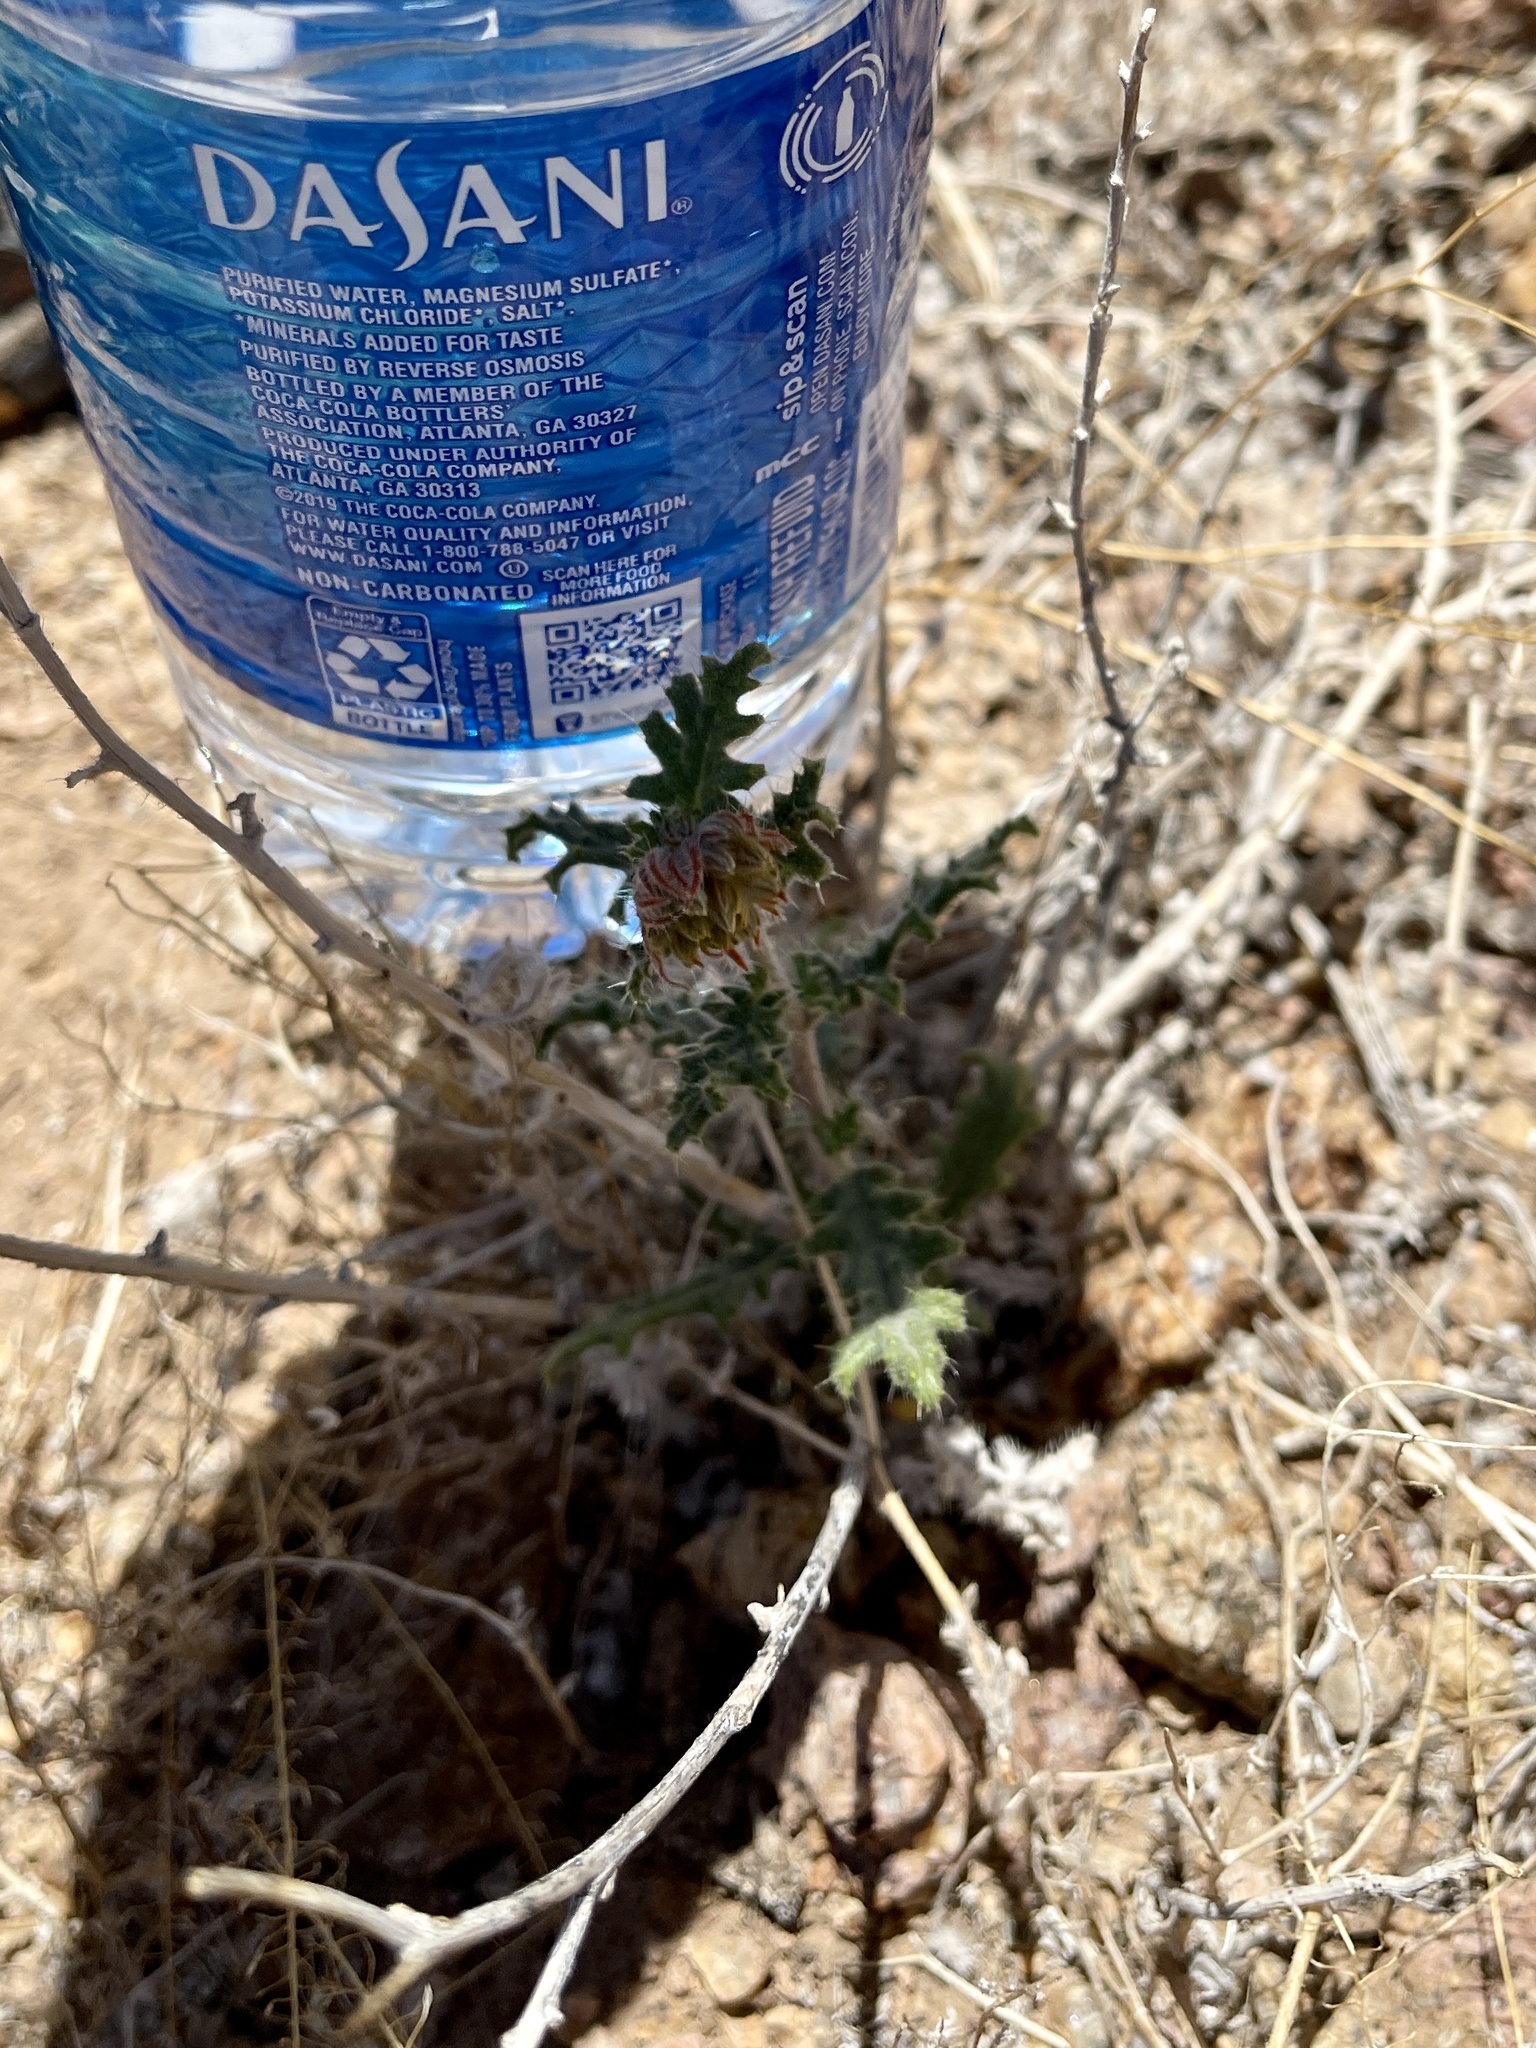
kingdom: Plantae
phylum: Tracheophyta
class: Magnoliopsida
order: Cornales
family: Loasaceae
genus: Cevallia
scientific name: Cevallia sinuata
